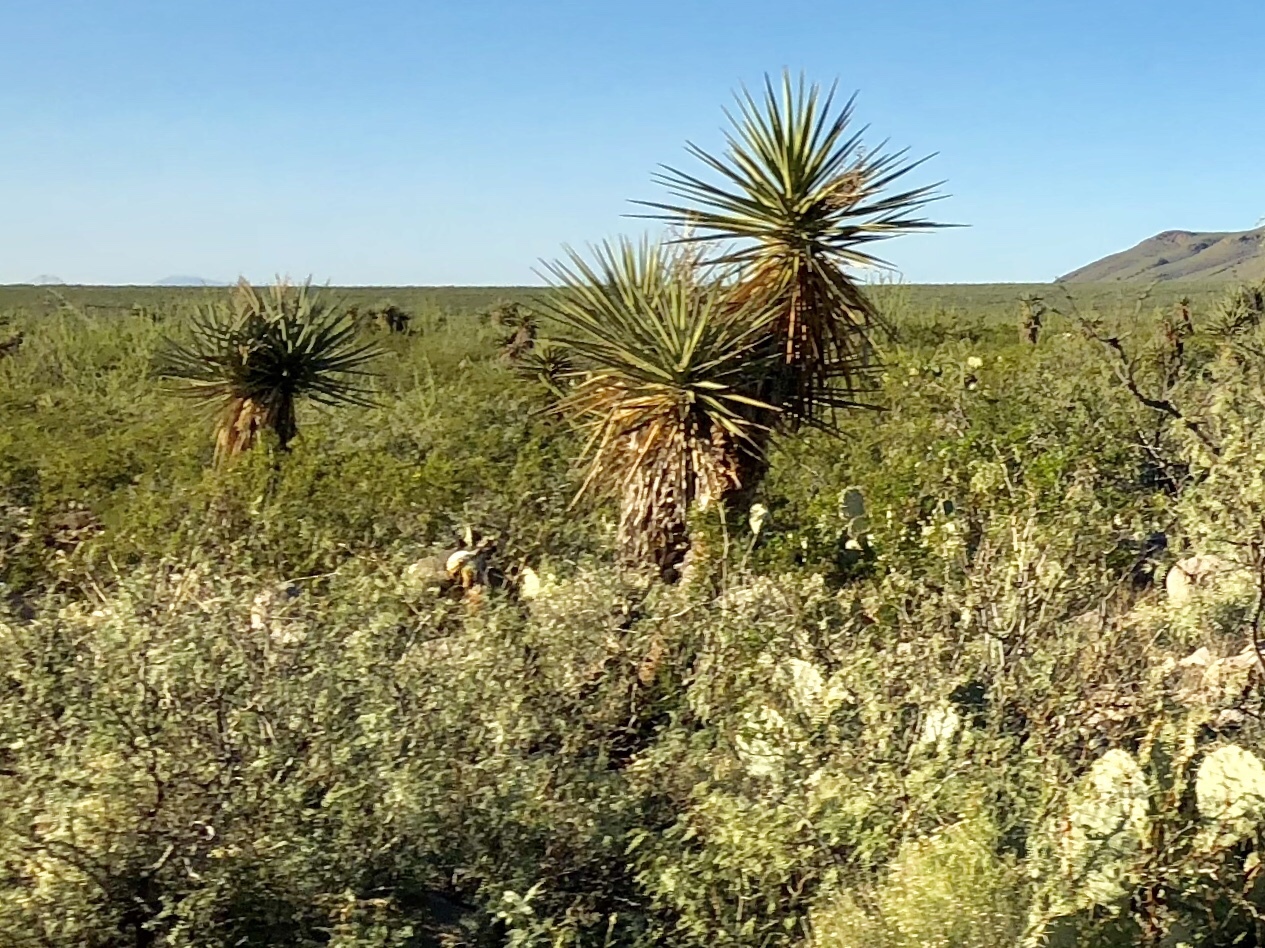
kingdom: Plantae
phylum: Tracheophyta
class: Liliopsida
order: Asparagales
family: Asparagaceae
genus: Yucca
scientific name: Yucca treculiana
